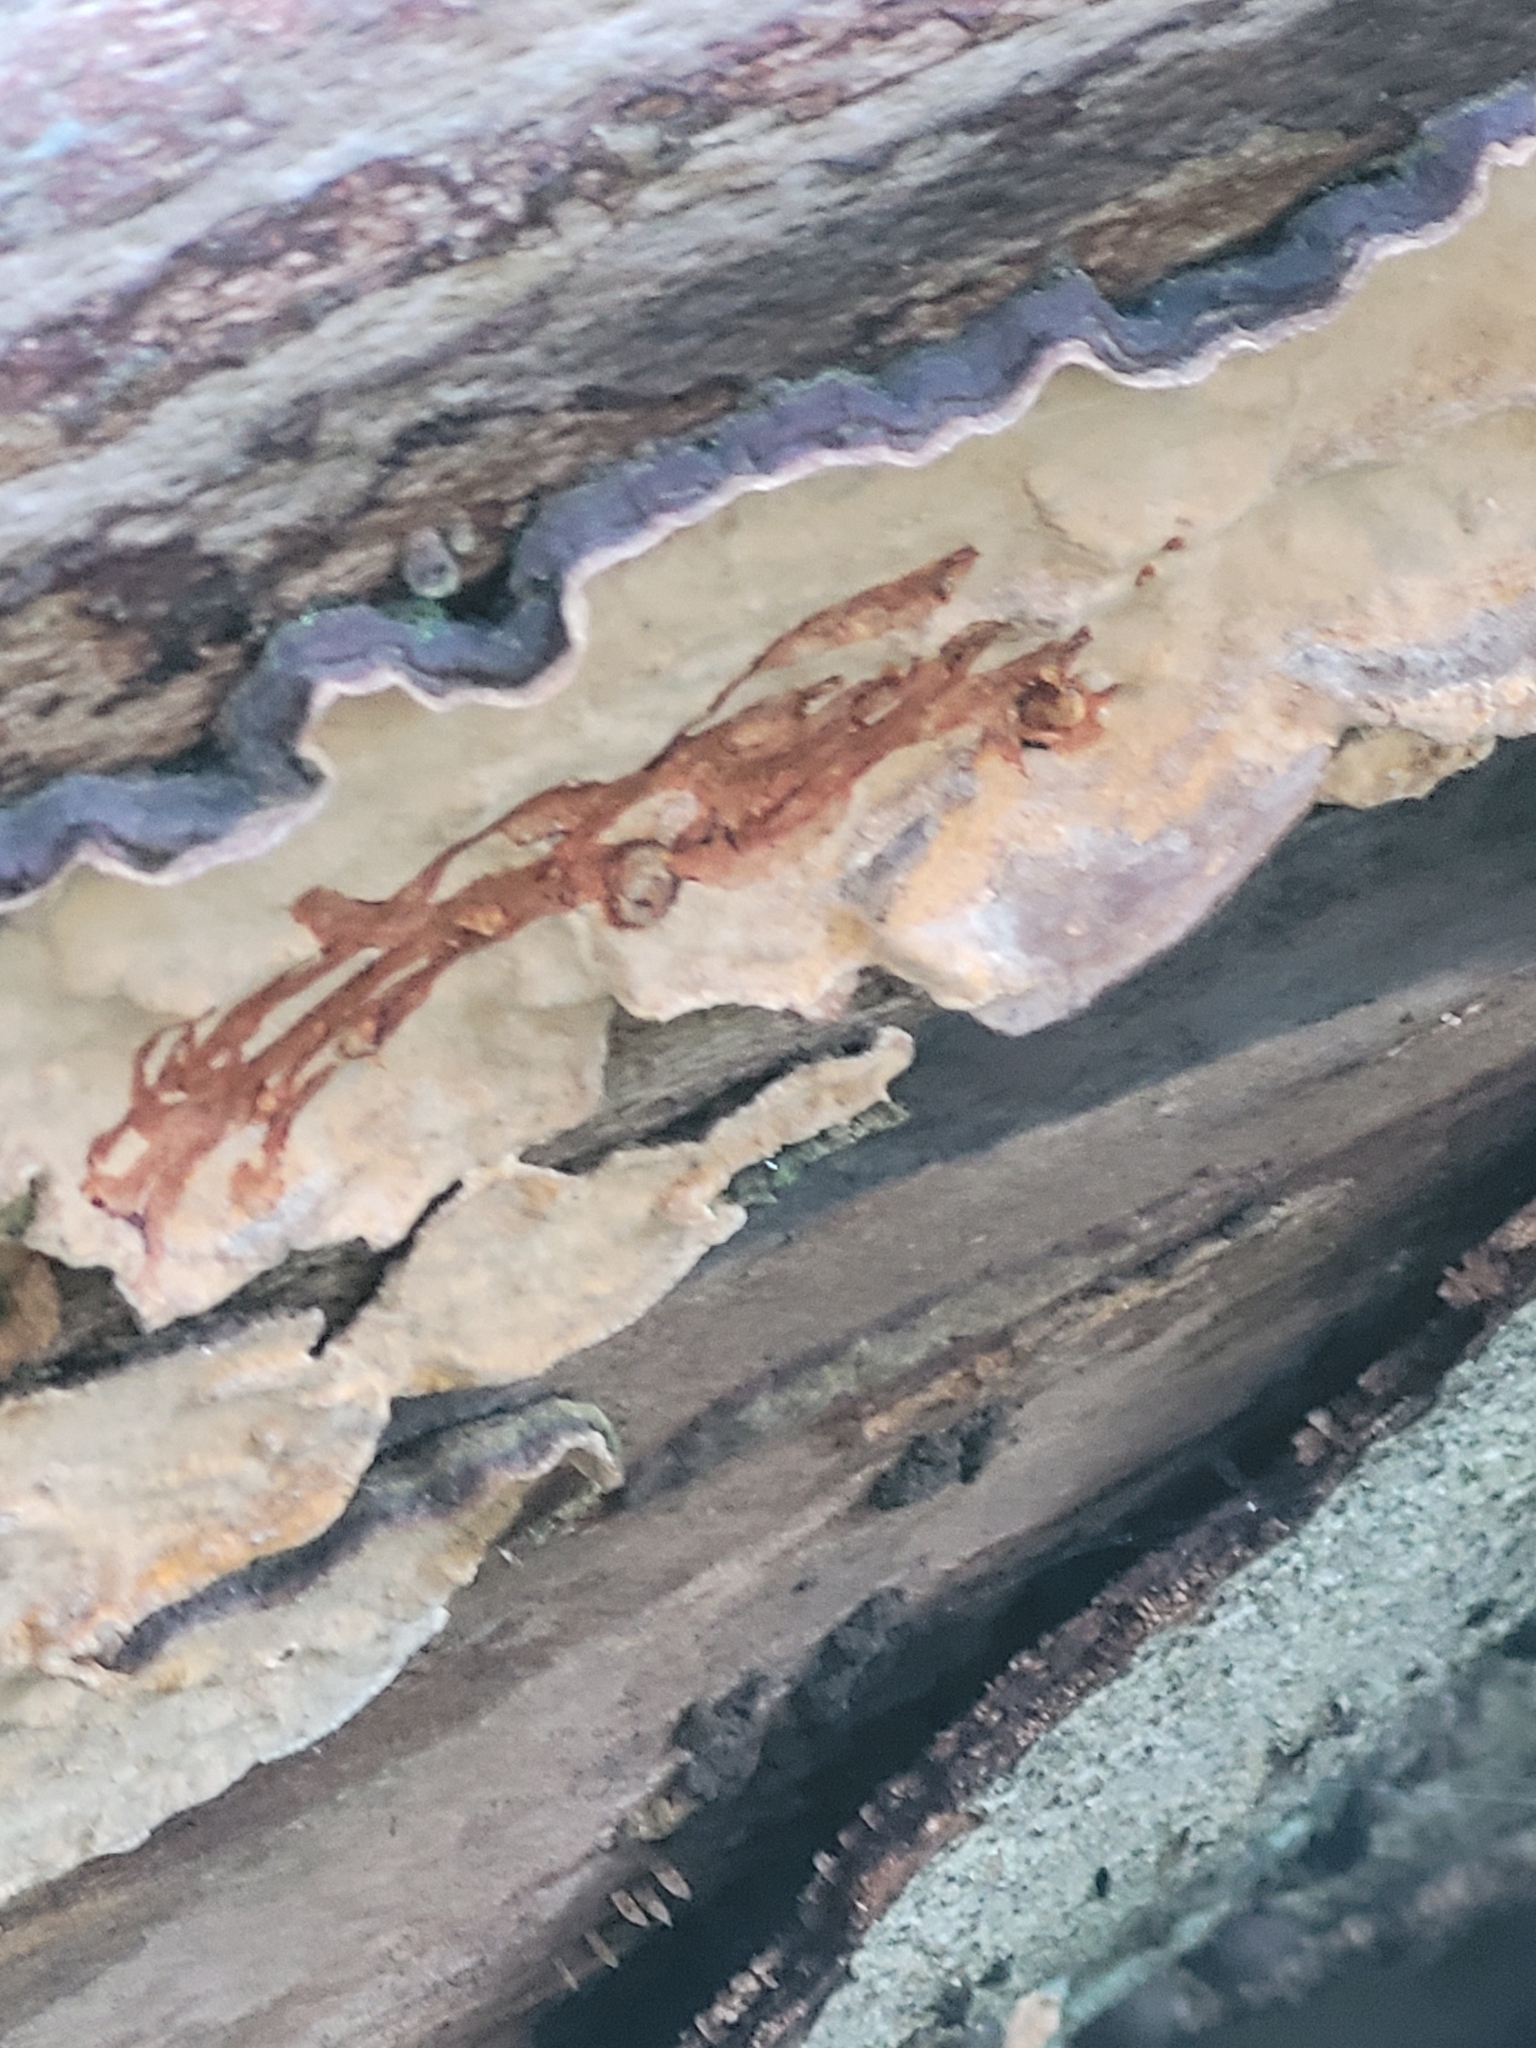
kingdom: Fungi
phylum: Basidiomycota
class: Agaricomycetes
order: Russulales
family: Stereaceae
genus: Stereum
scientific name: Stereum rugosum
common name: Bleeding broadleaf crust
